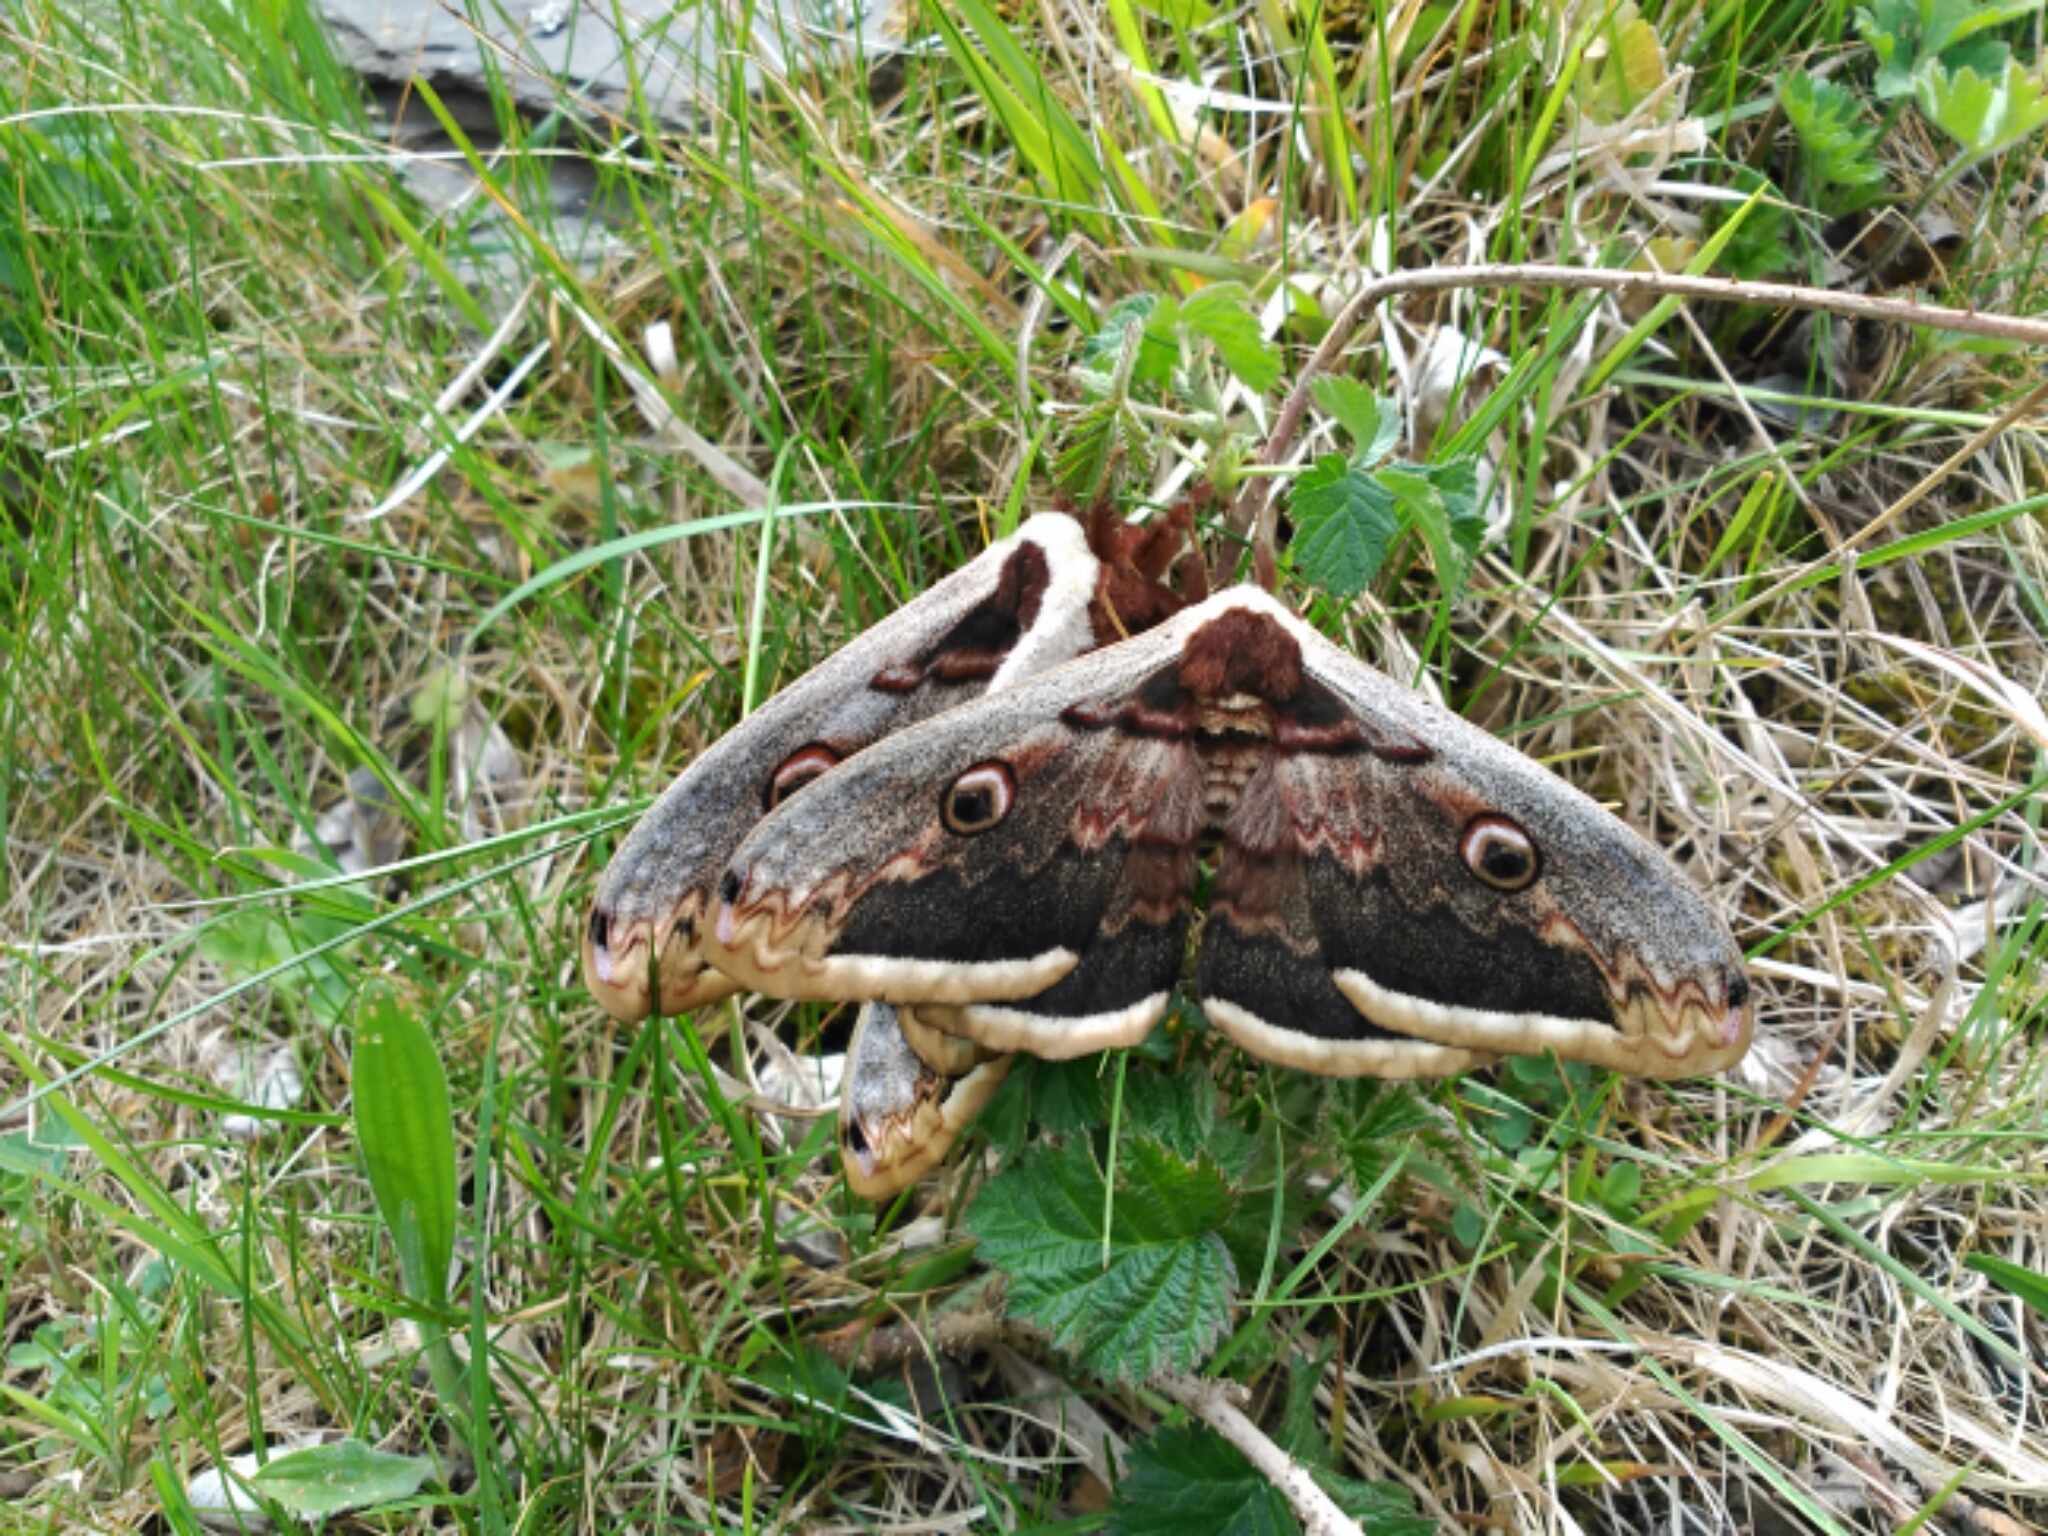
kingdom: Animalia
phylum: Arthropoda
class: Insecta
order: Lepidoptera
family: Saturniidae
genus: Saturnia
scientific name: Saturnia pyri
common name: Great peacock moth
